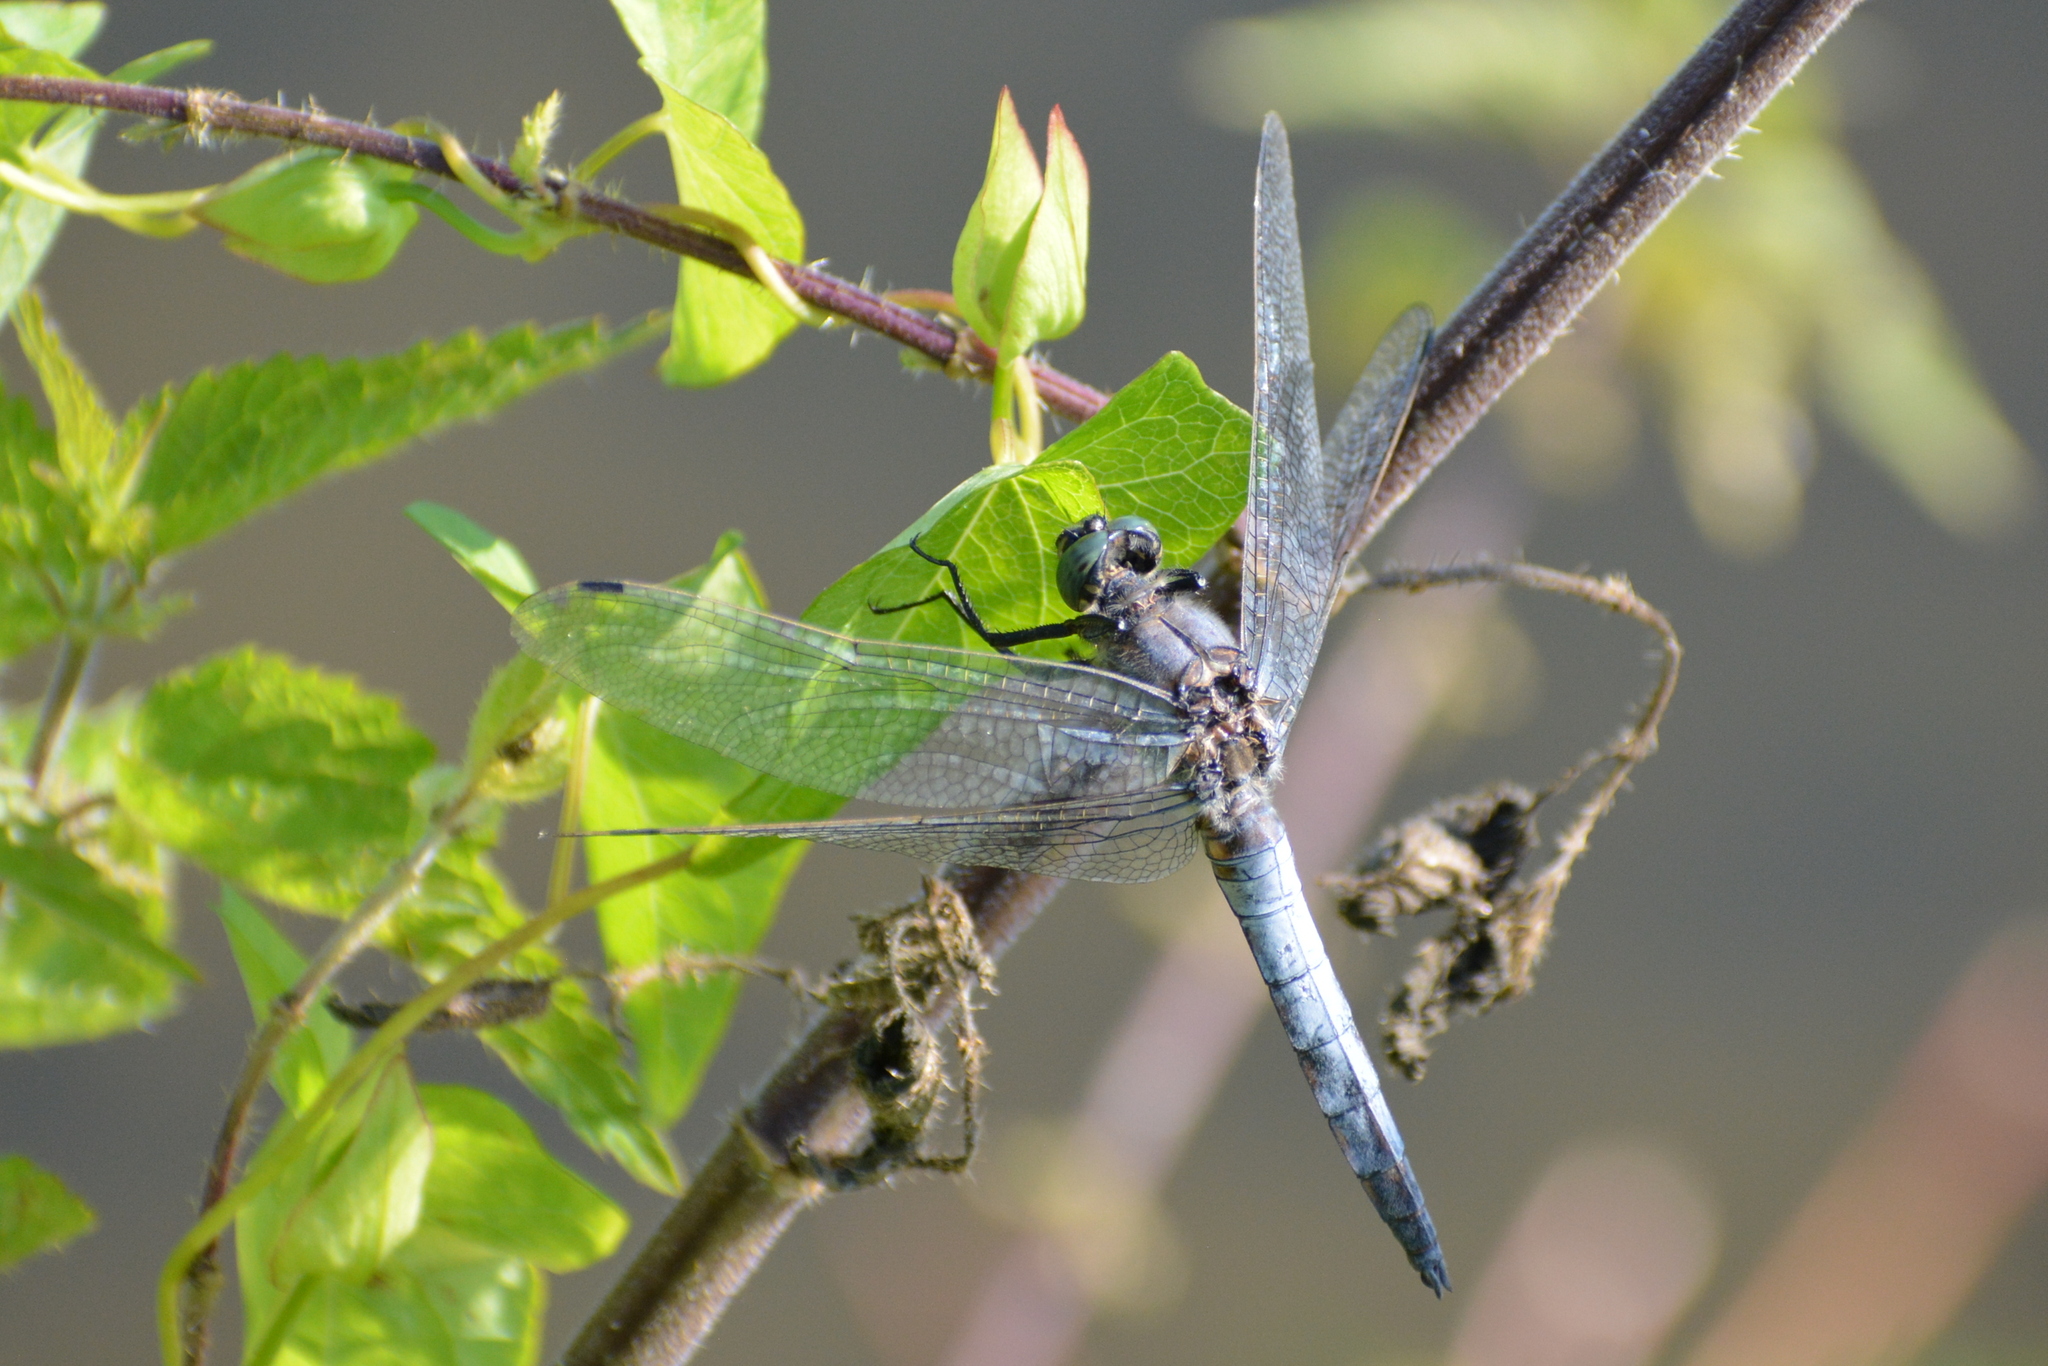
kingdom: Animalia
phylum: Arthropoda
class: Insecta
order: Odonata
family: Libellulidae
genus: Orthetrum
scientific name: Orthetrum cancellatum
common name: Black-tailed skimmer
